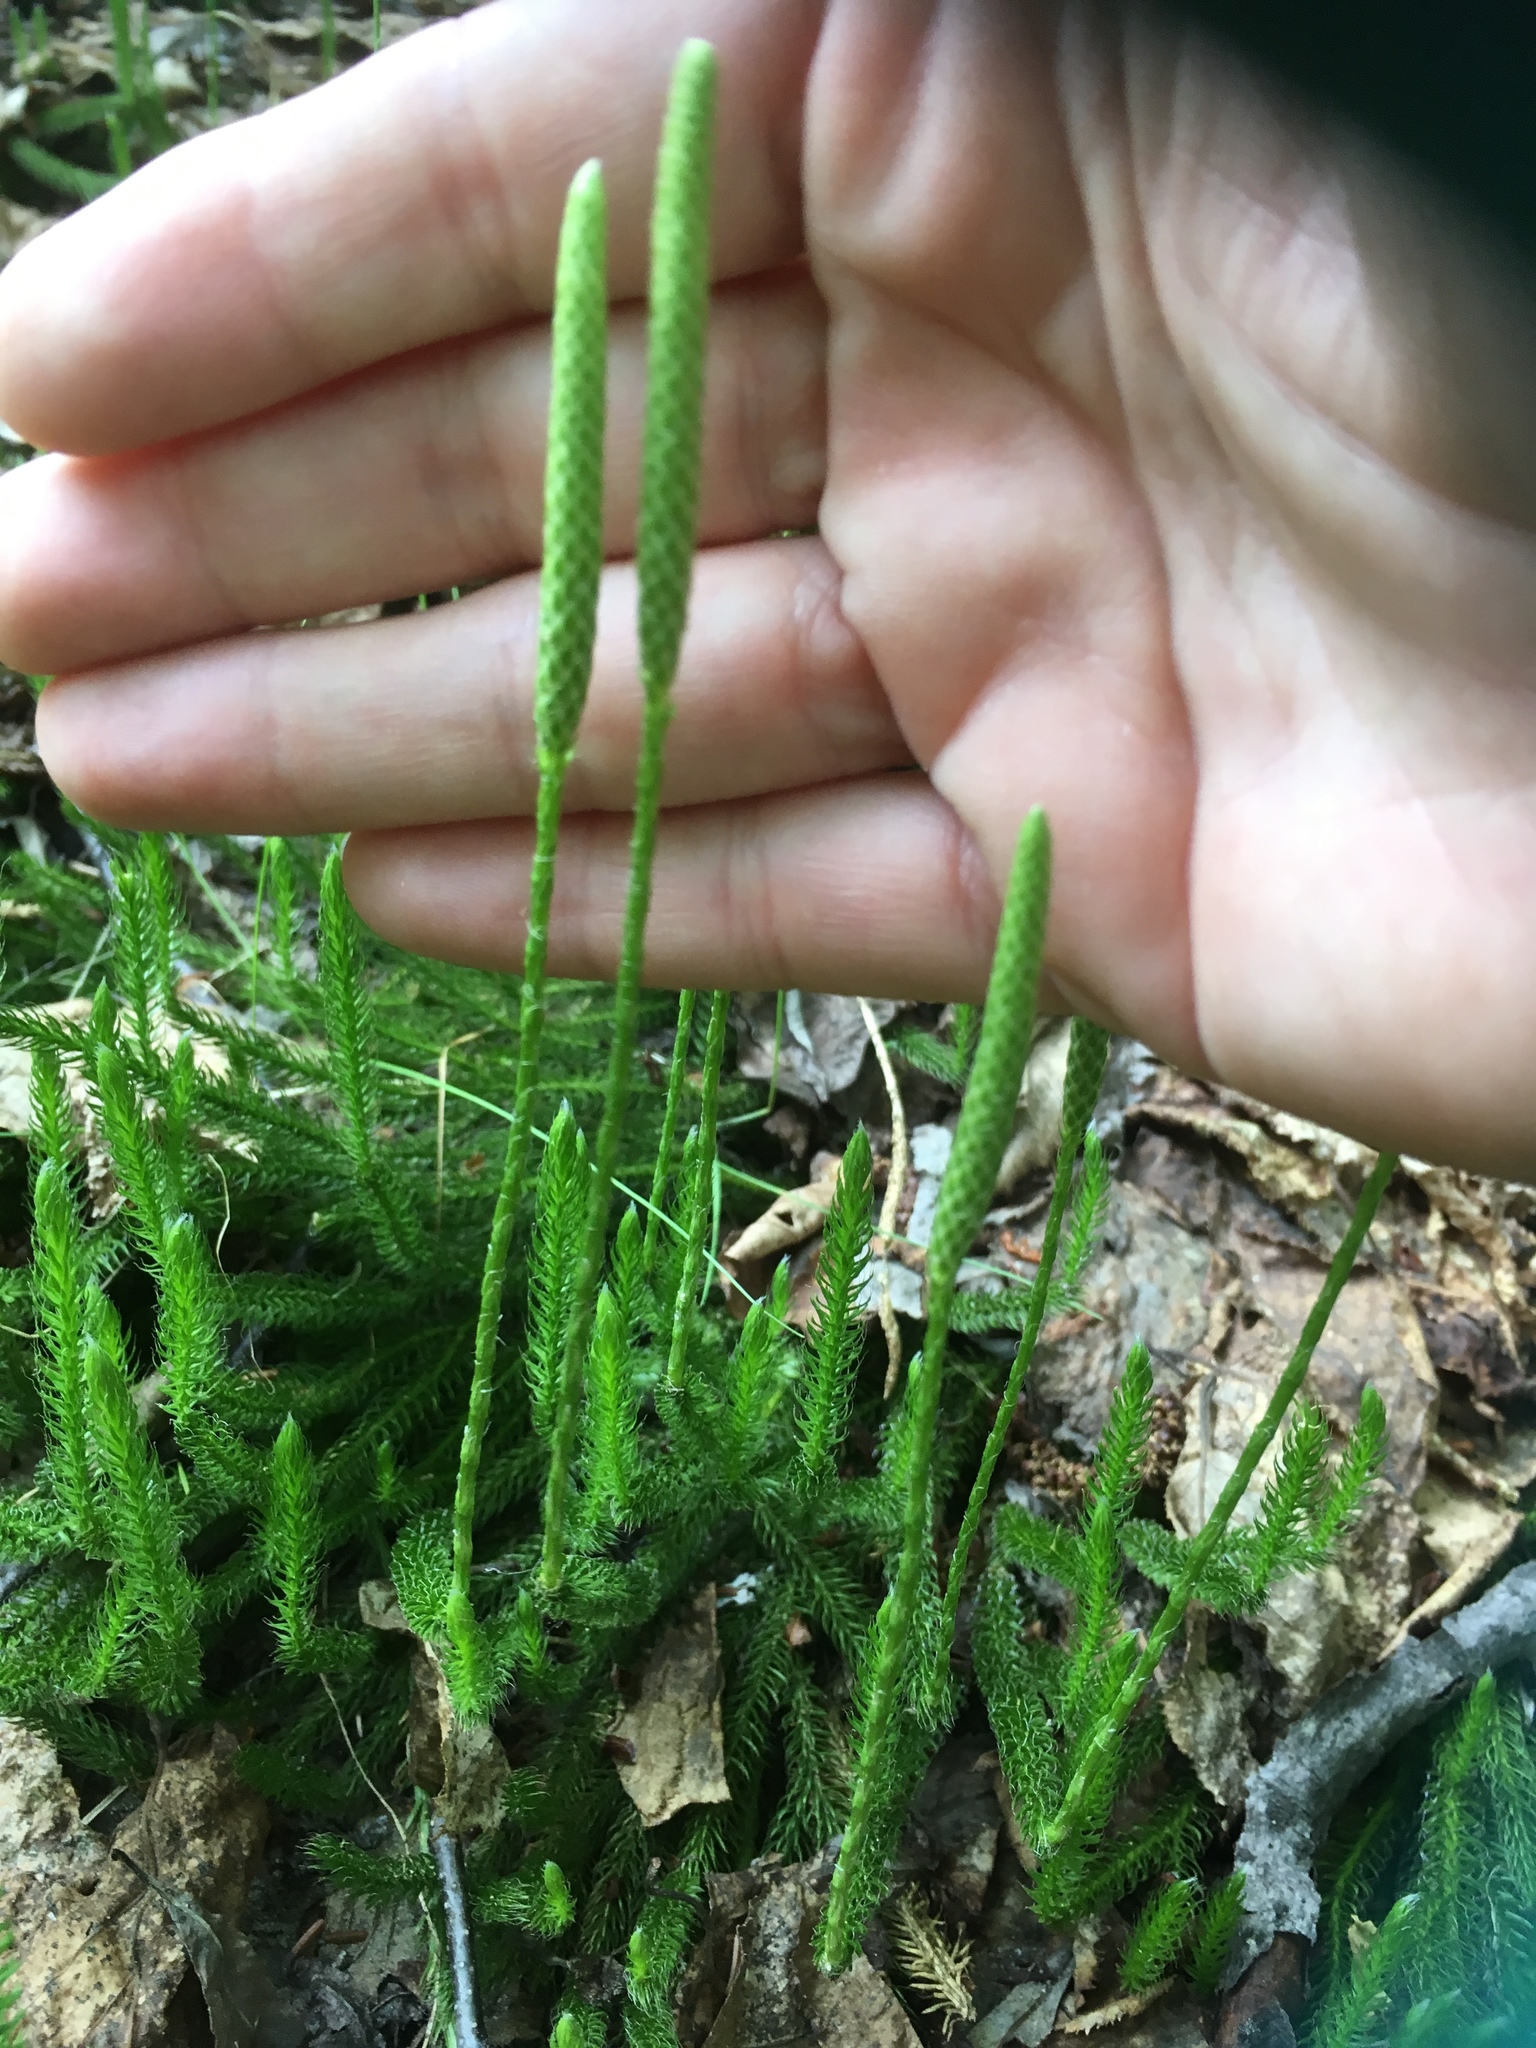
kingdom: Plantae
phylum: Tracheophyta
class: Lycopodiopsida
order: Lycopodiales
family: Lycopodiaceae
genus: Lycopodium
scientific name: Lycopodium lagopus
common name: One-cone clubmoss
